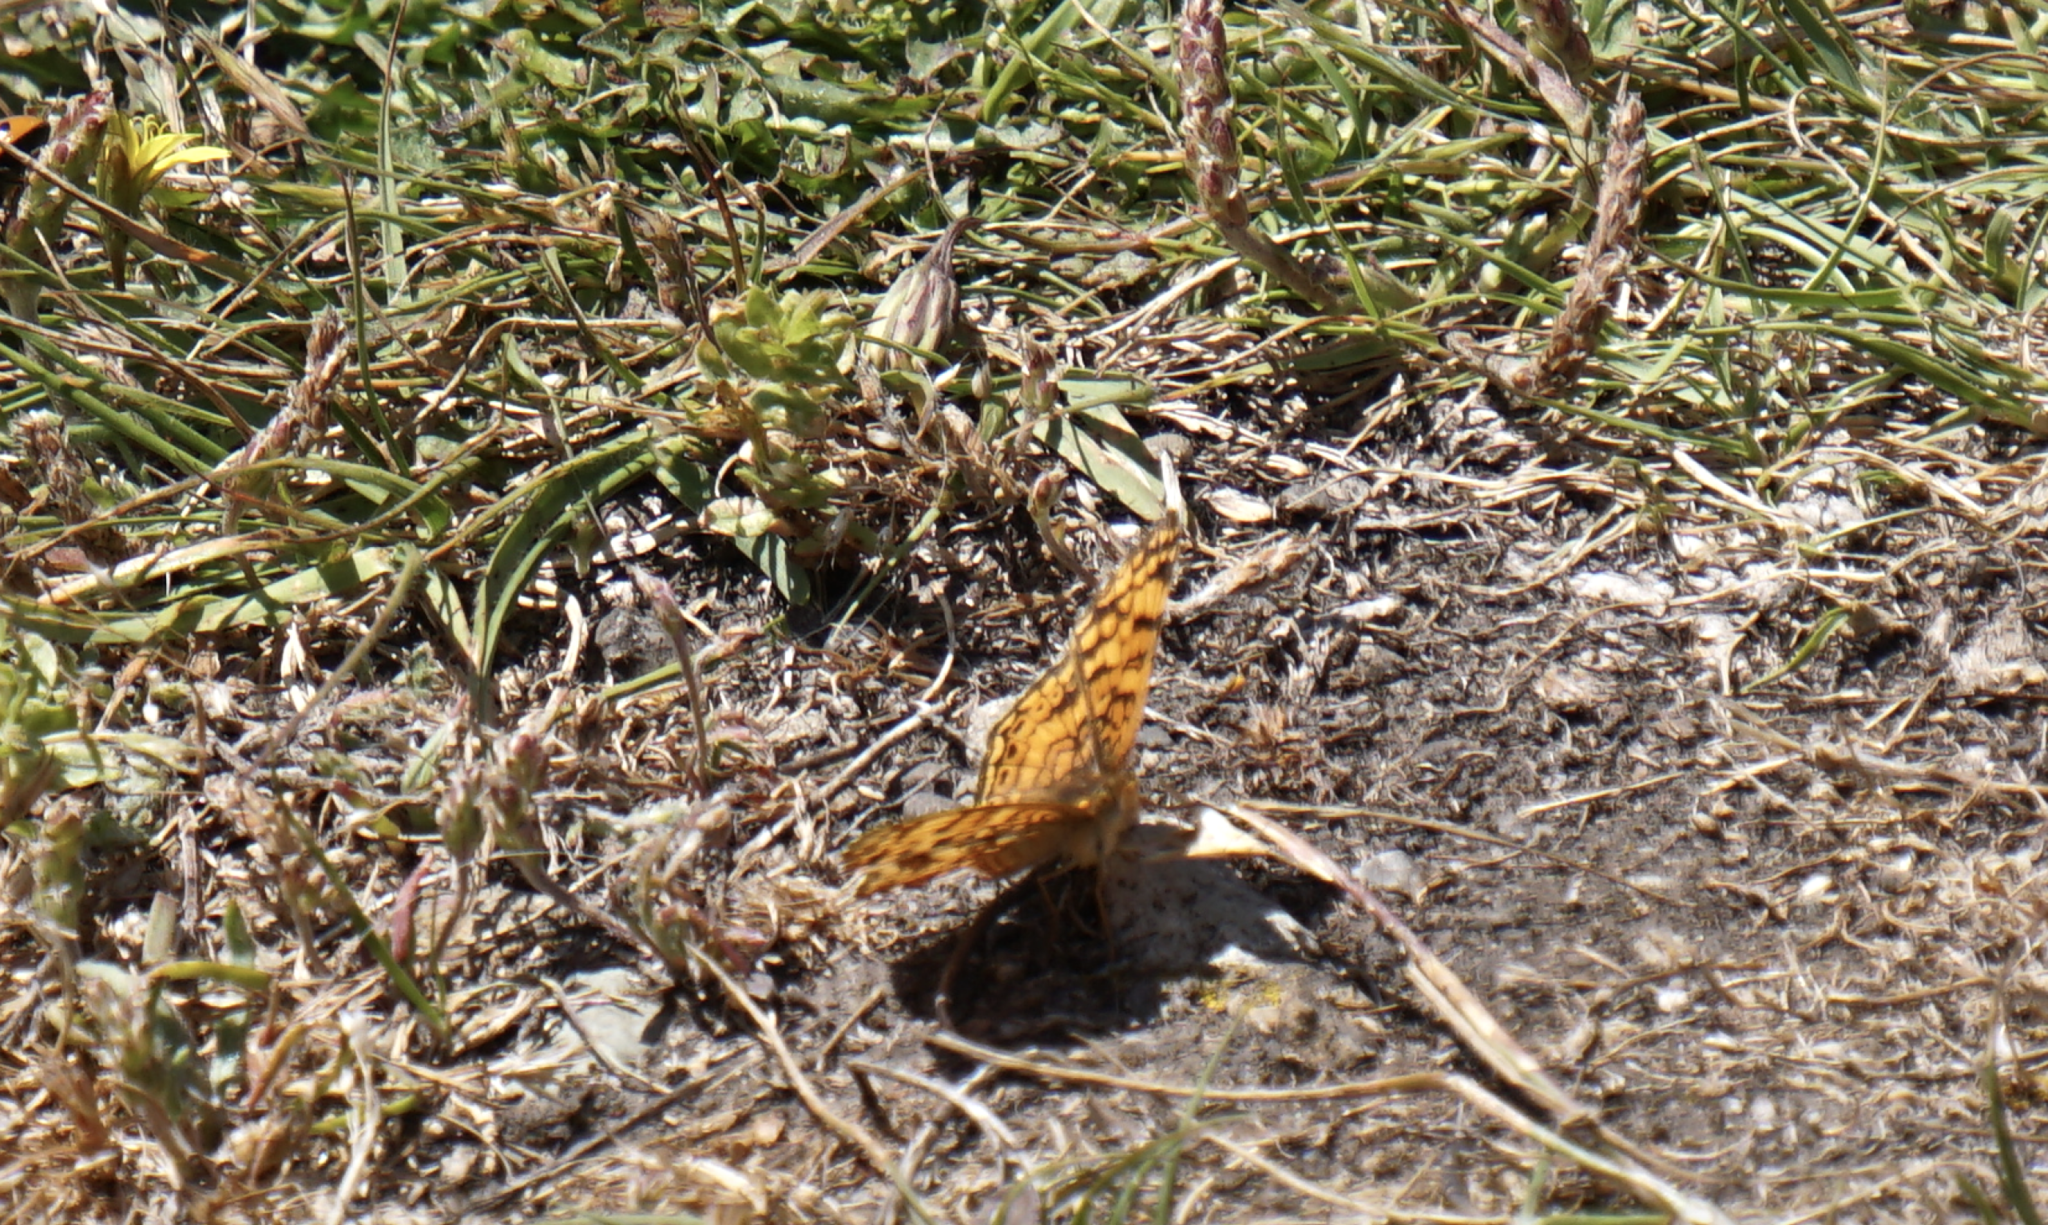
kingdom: Animalia
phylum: Arthropoda
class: Insecta
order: Lepidoptera
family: Nymphalidae
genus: Eresia
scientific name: Eresia aveyrona
